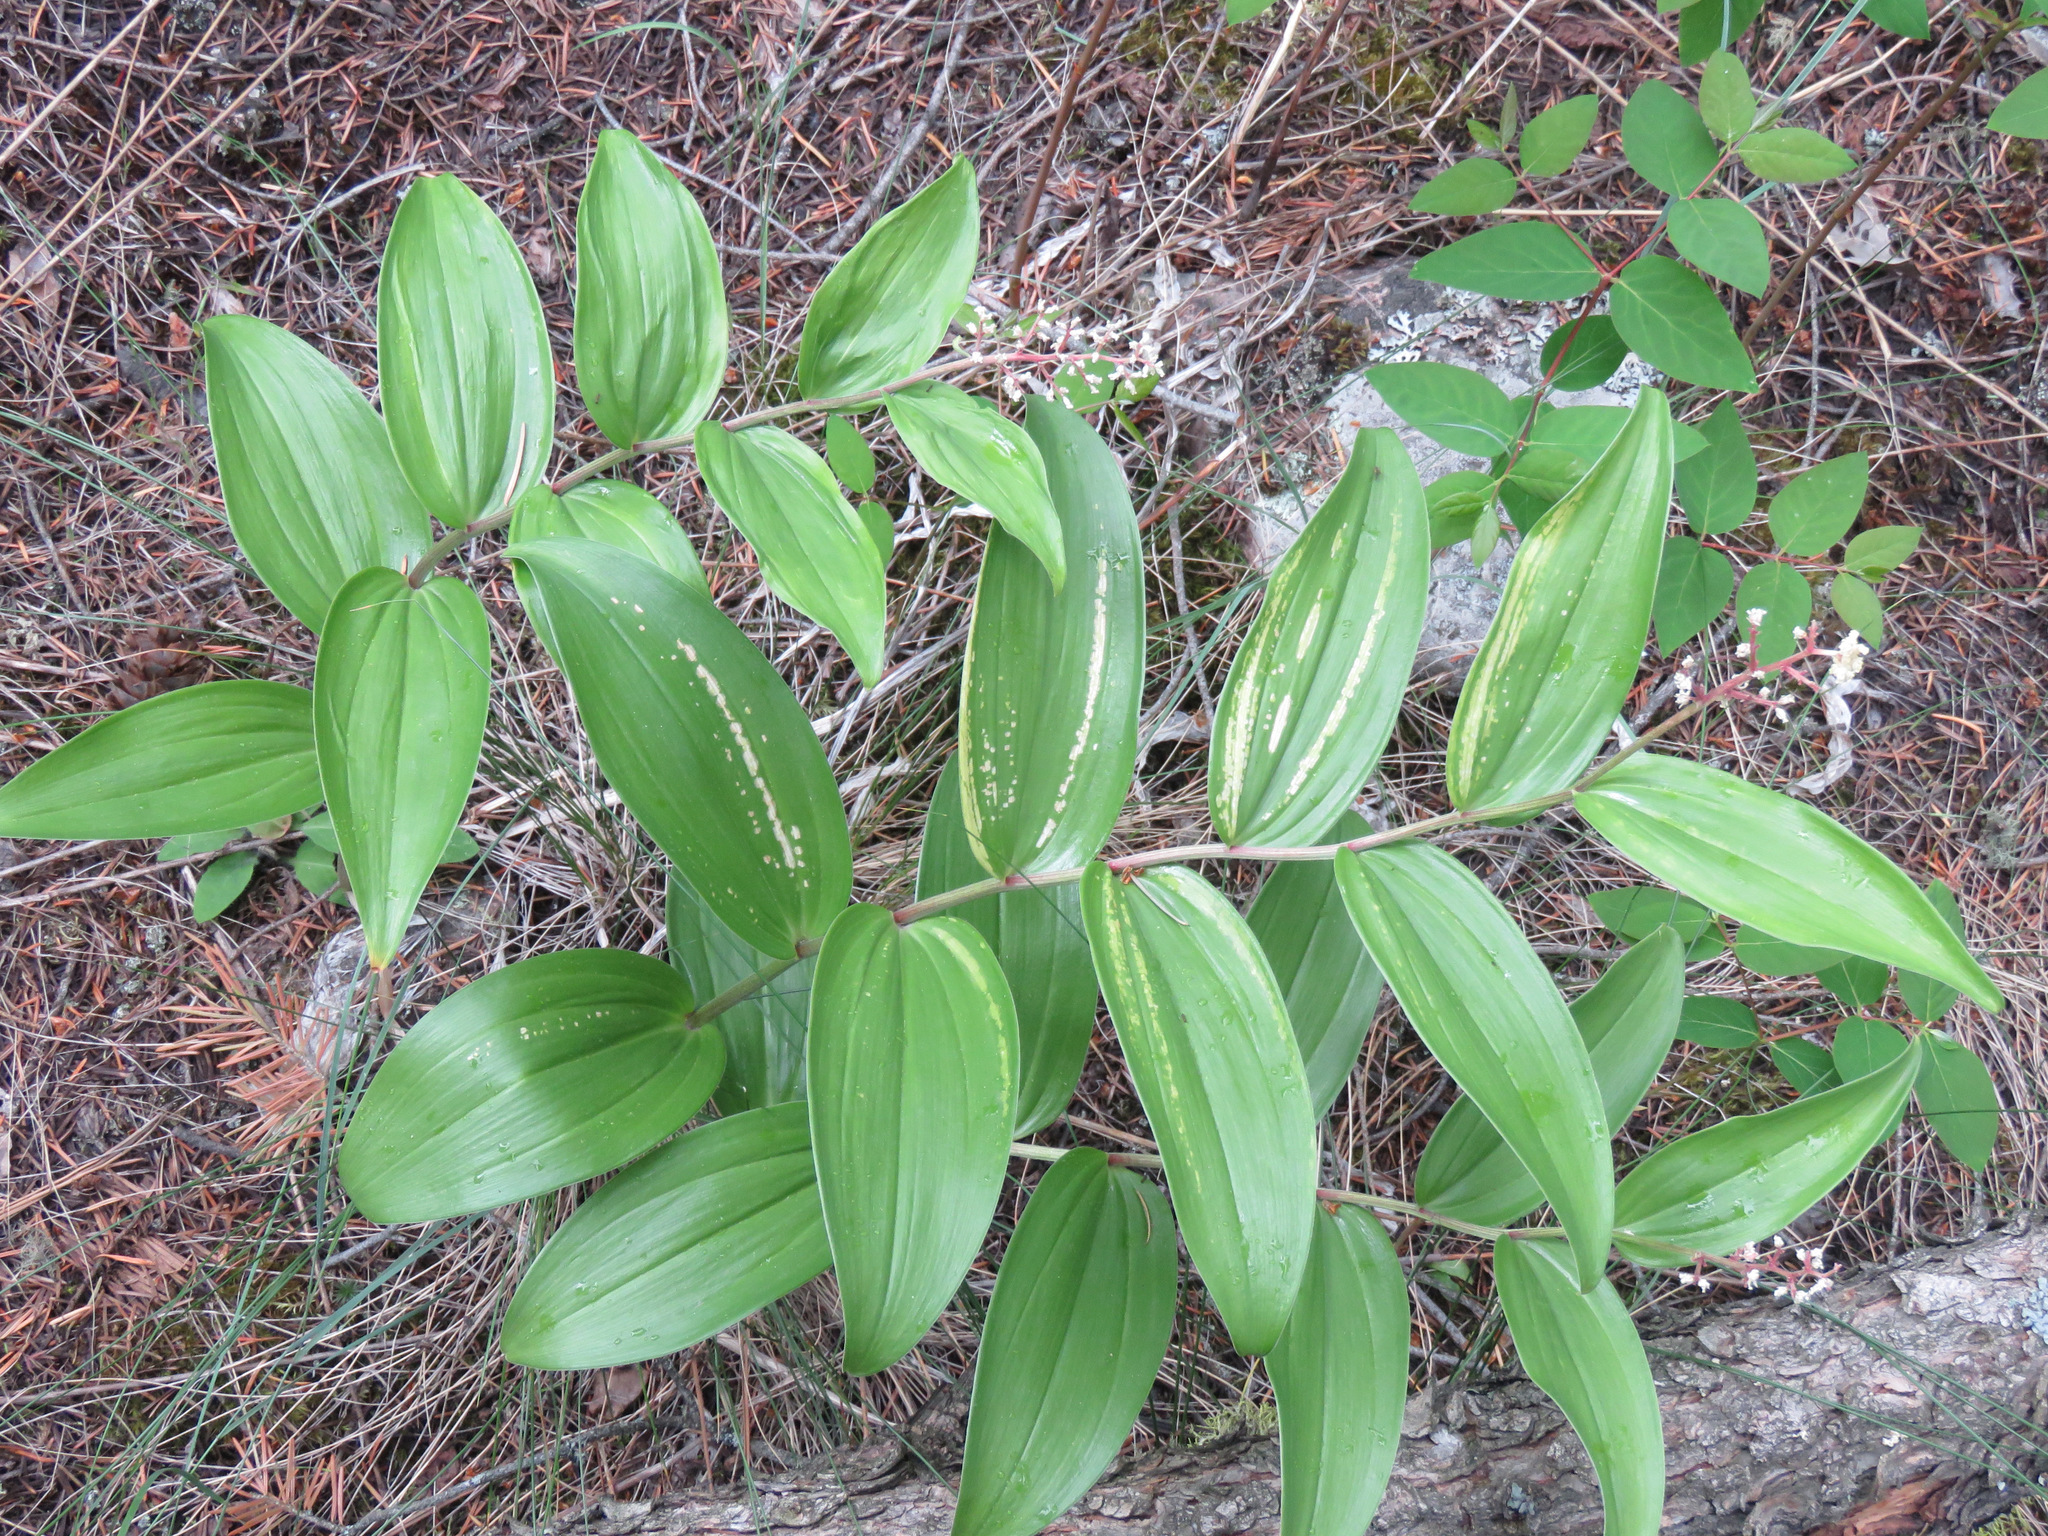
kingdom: Plantae
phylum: Tracheophyta
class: Liliopsida
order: Asparagales
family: Asparagaceae
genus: Maianthemum
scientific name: Maianthemum racemosum
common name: False spikenard
